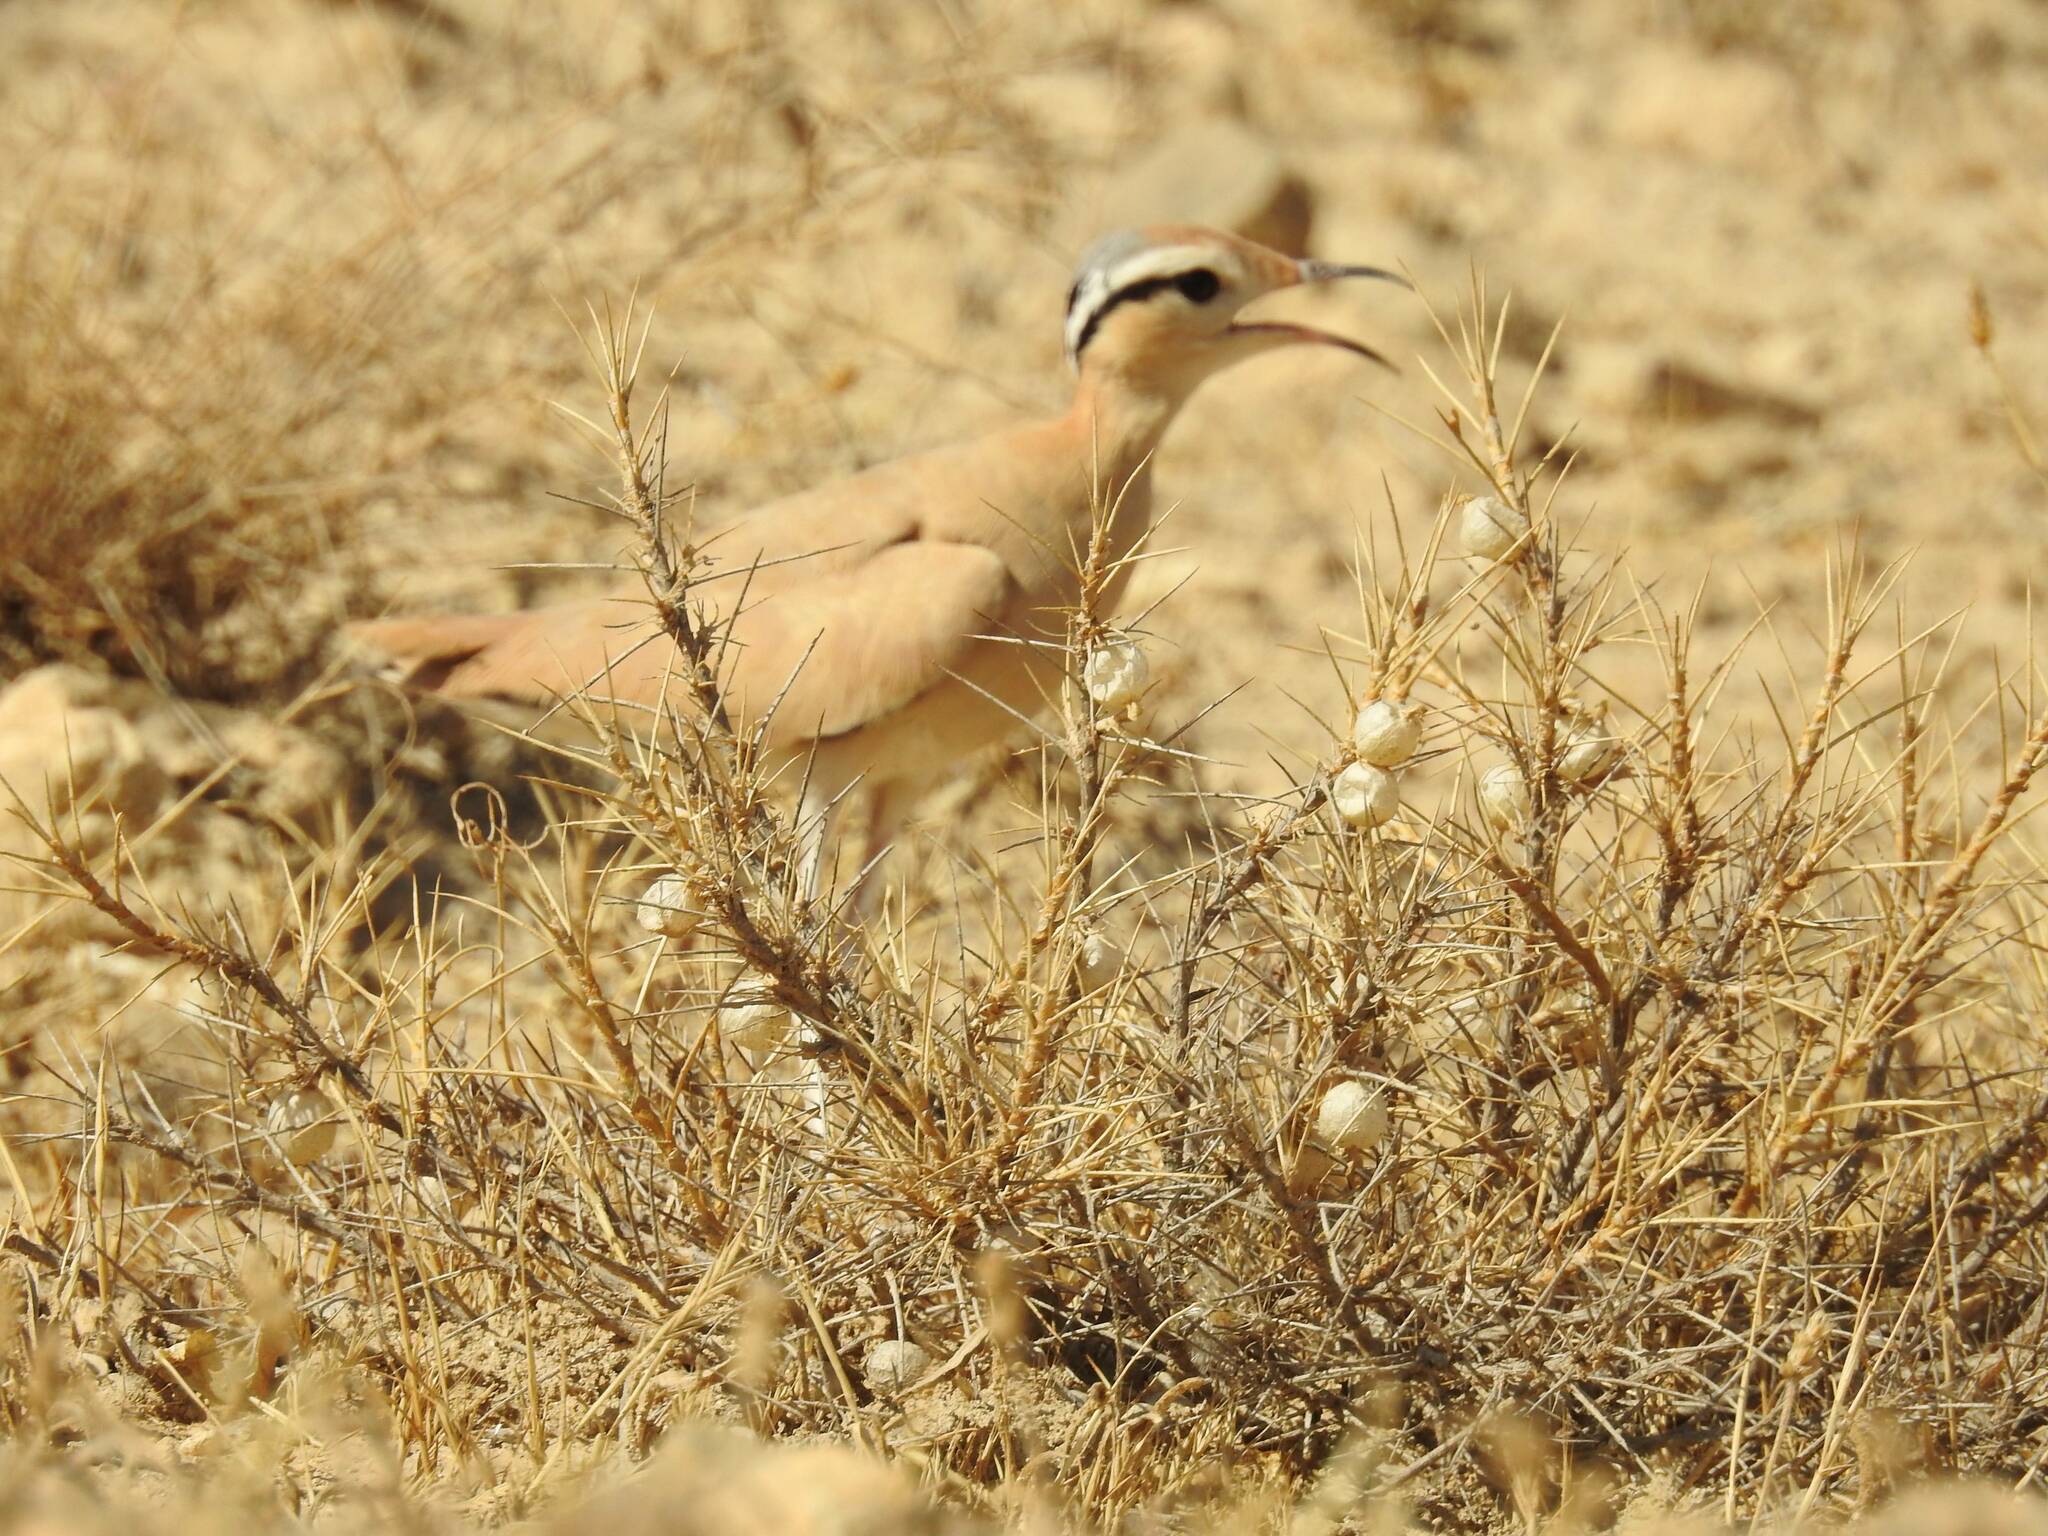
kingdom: Animalia
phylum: Chordata
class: Aves
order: Charadriiformes
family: Glareolidae
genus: Cursorius
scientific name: Cursorius cursor
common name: Cream-colored courser
